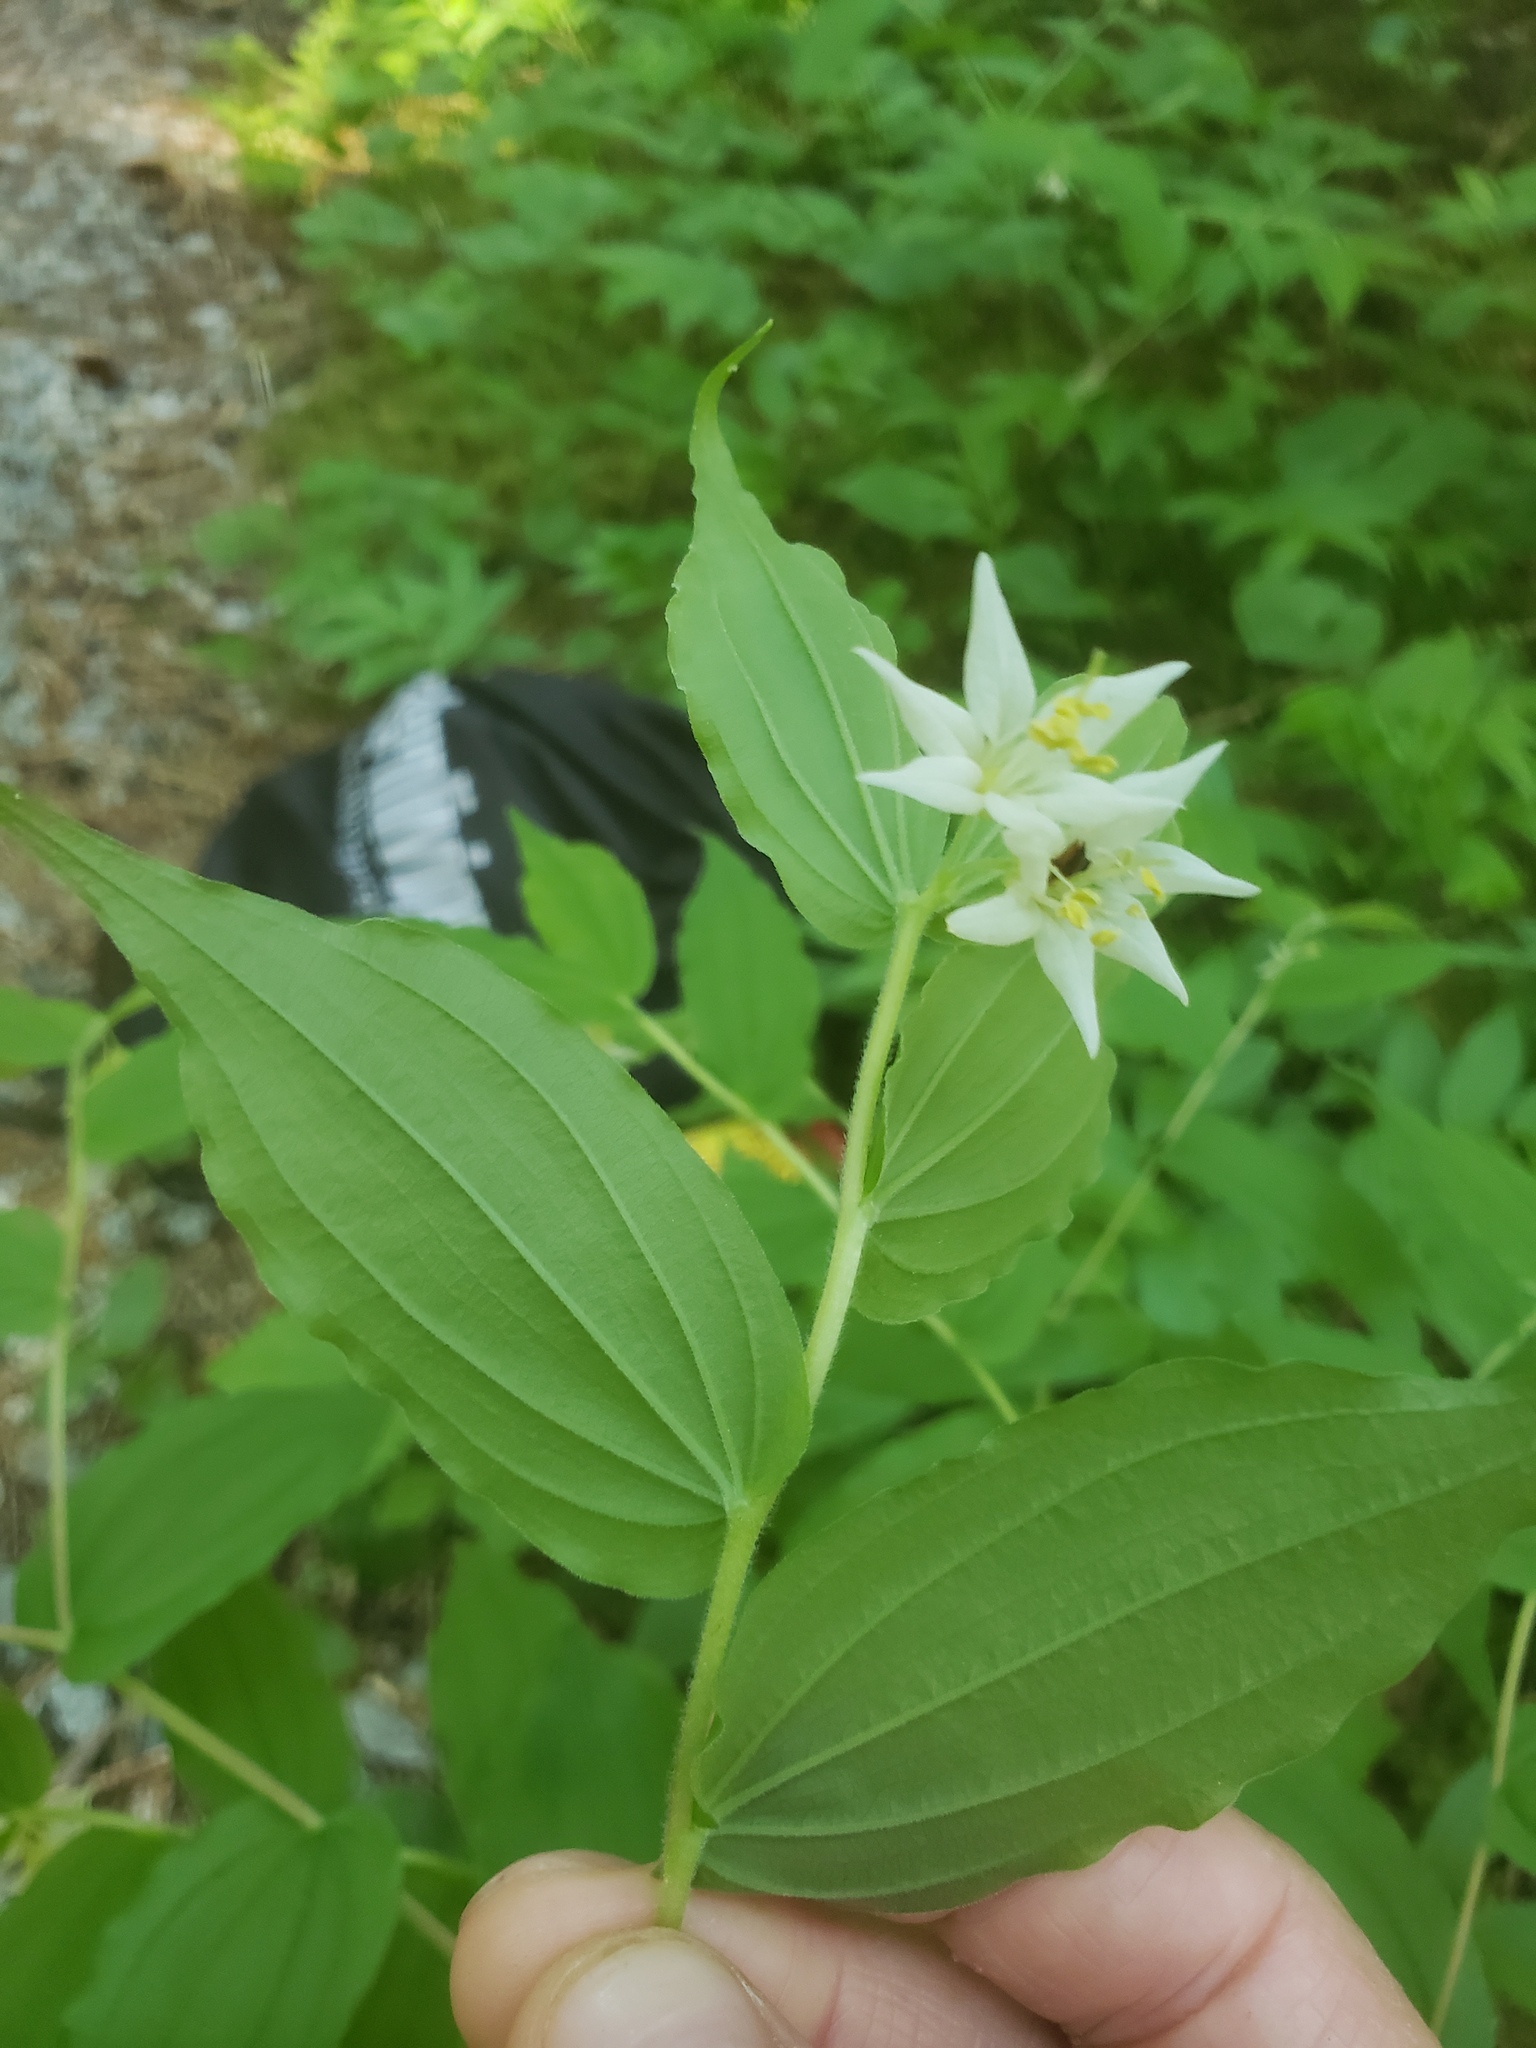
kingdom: Plantae
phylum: Tracheophyta
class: Liliopsida
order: Liliales
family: Liliaceae
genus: Prosartes
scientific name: Prosartes hookeri
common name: Fairy-bells
